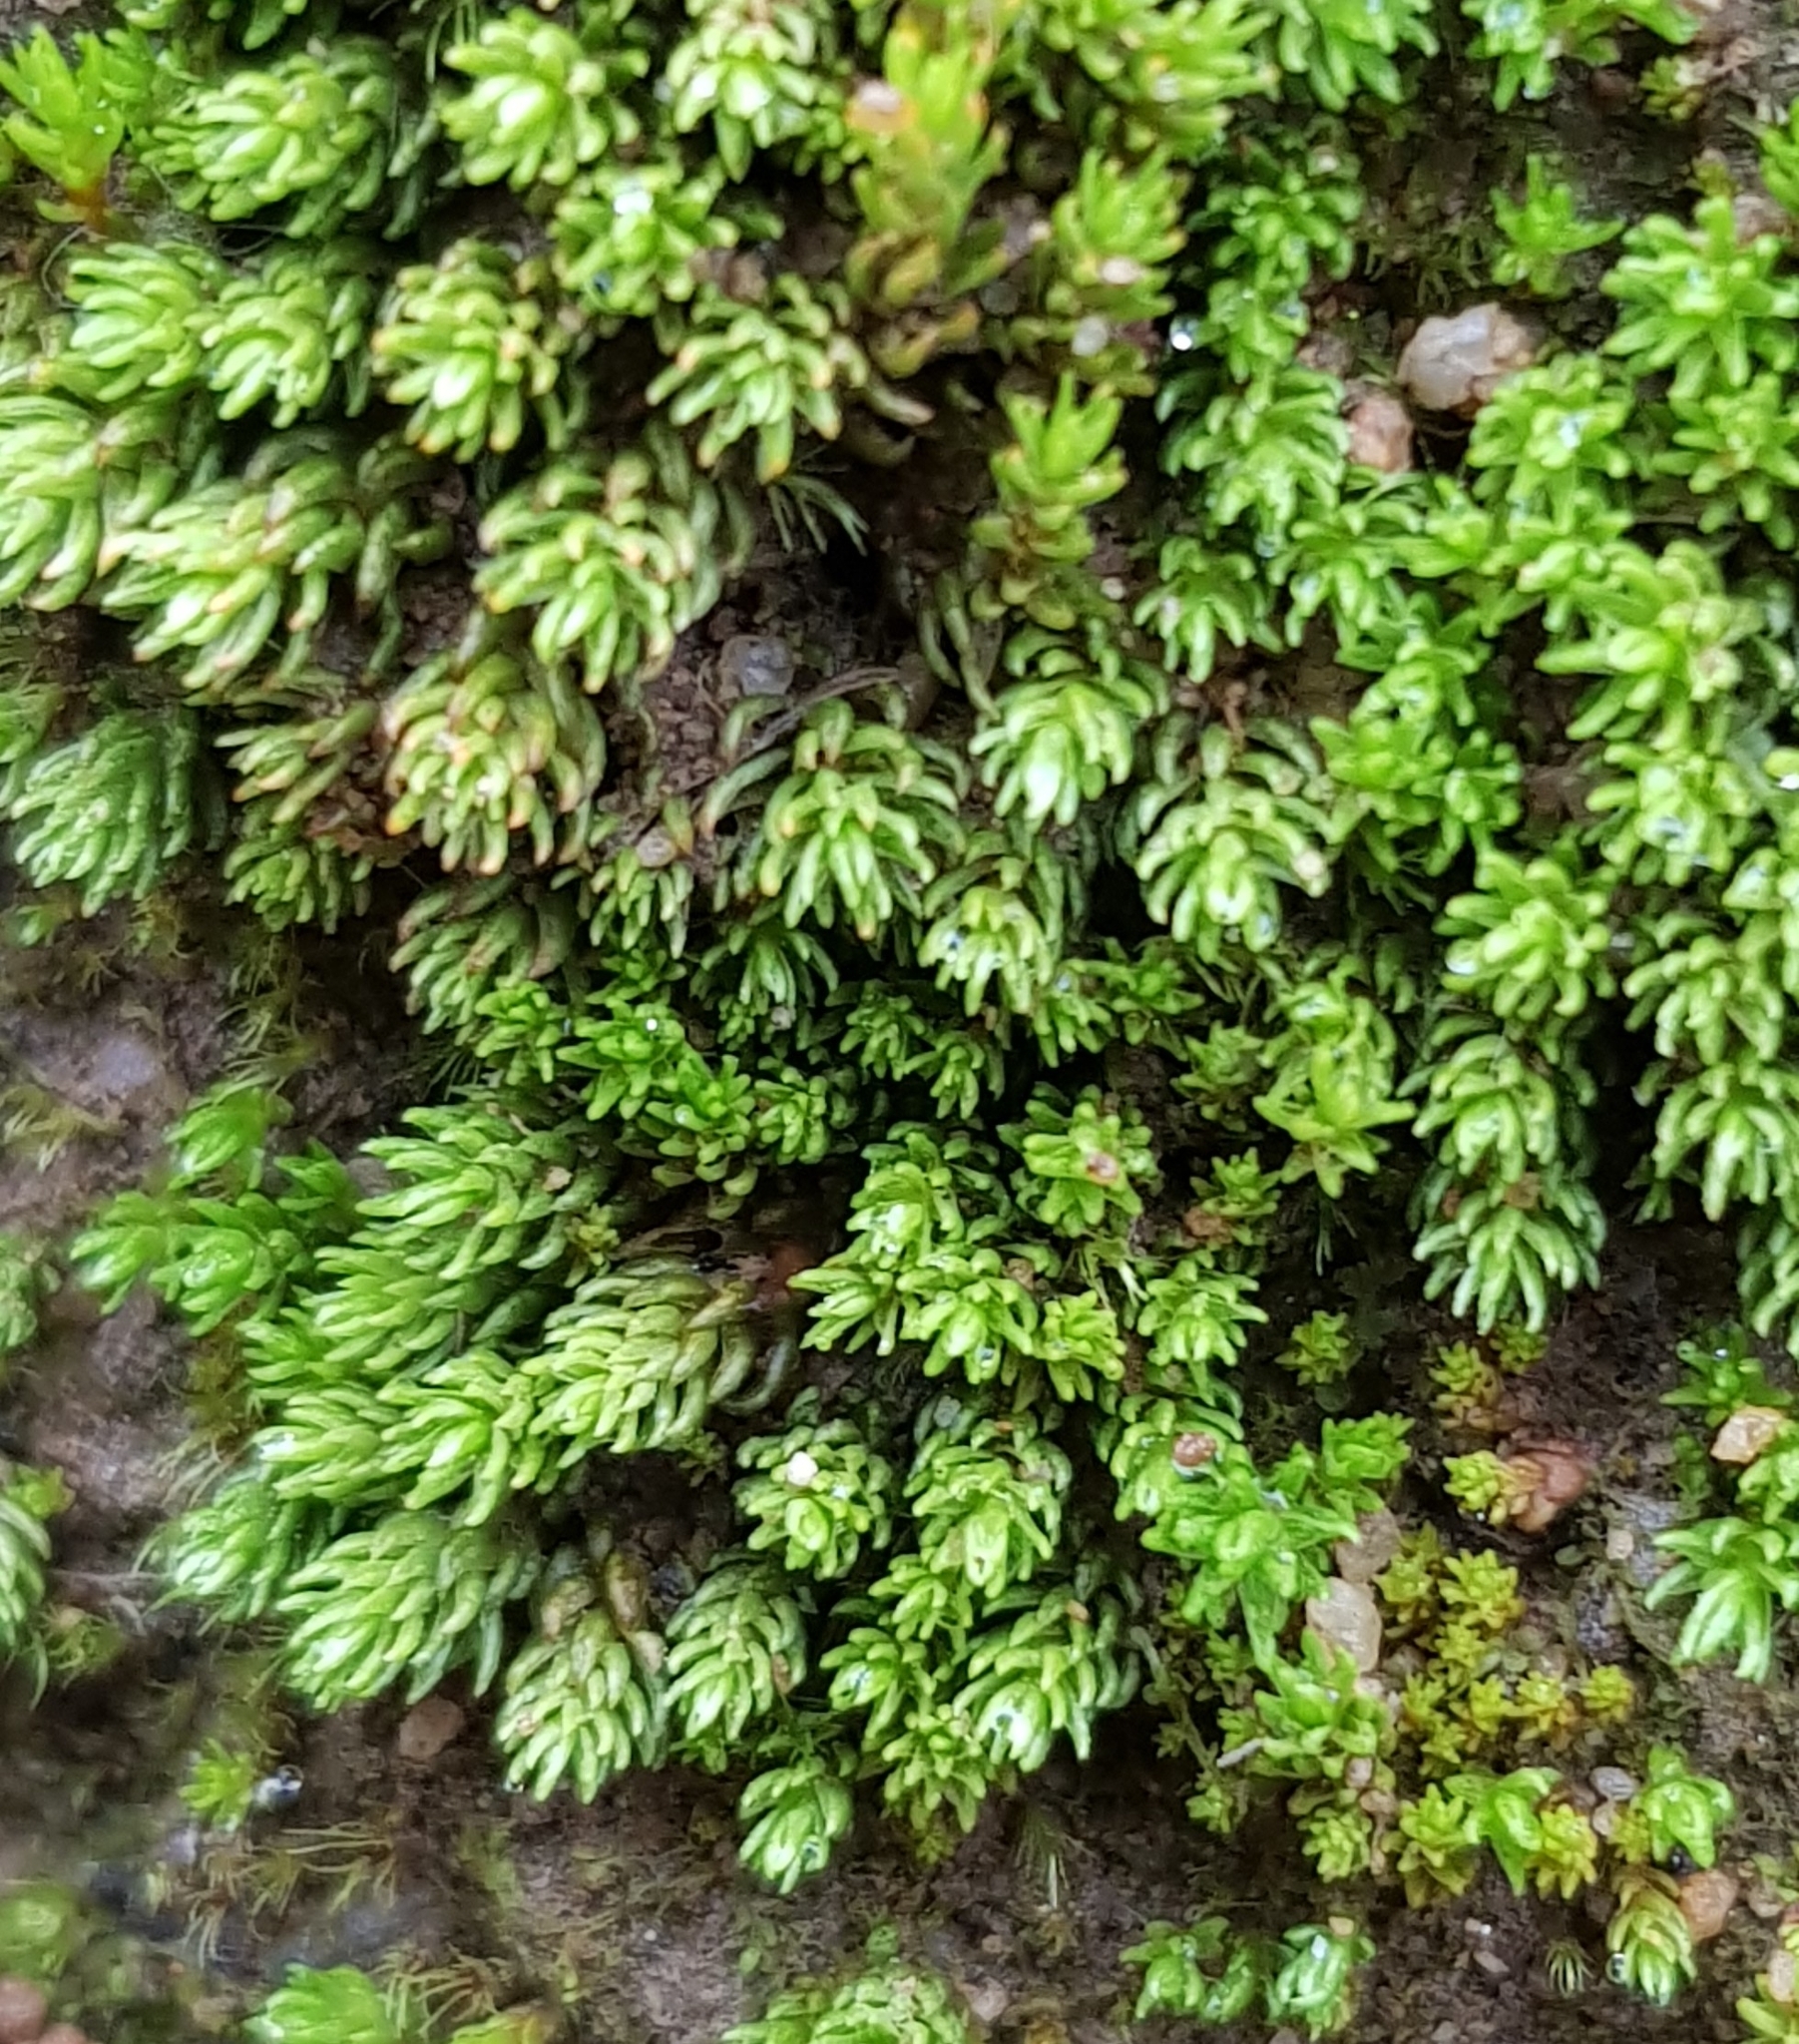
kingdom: Plantae
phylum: Bryophyta
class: Polytrichopsida
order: Polytrichales
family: Polytrichaceae
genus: Oligotrichum
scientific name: Oligotrichum hercynicum
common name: Hercynian hair moss
